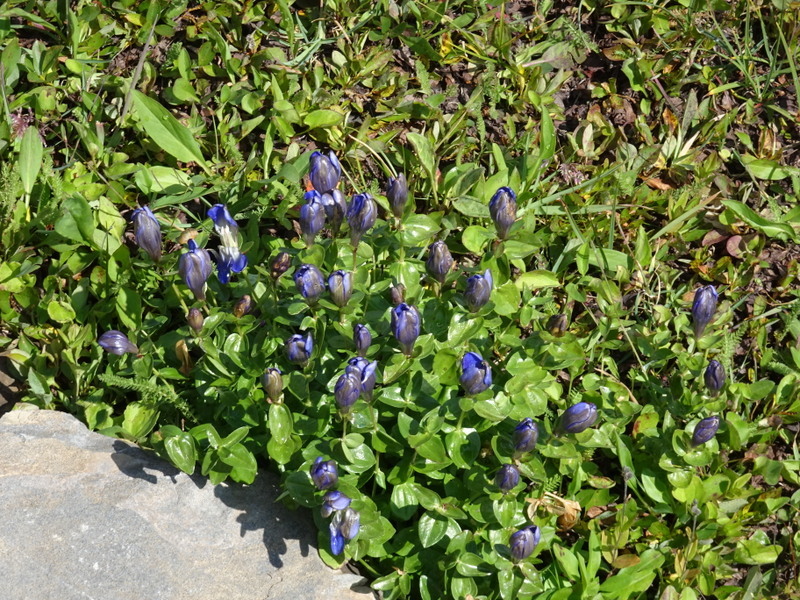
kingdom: Plantae
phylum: Tracheophyta
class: Magnoliopsida
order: Gentianales
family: Gentianaceae
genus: Gentiana
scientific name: Gentiana calycosa
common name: Rainier pleated gentian
